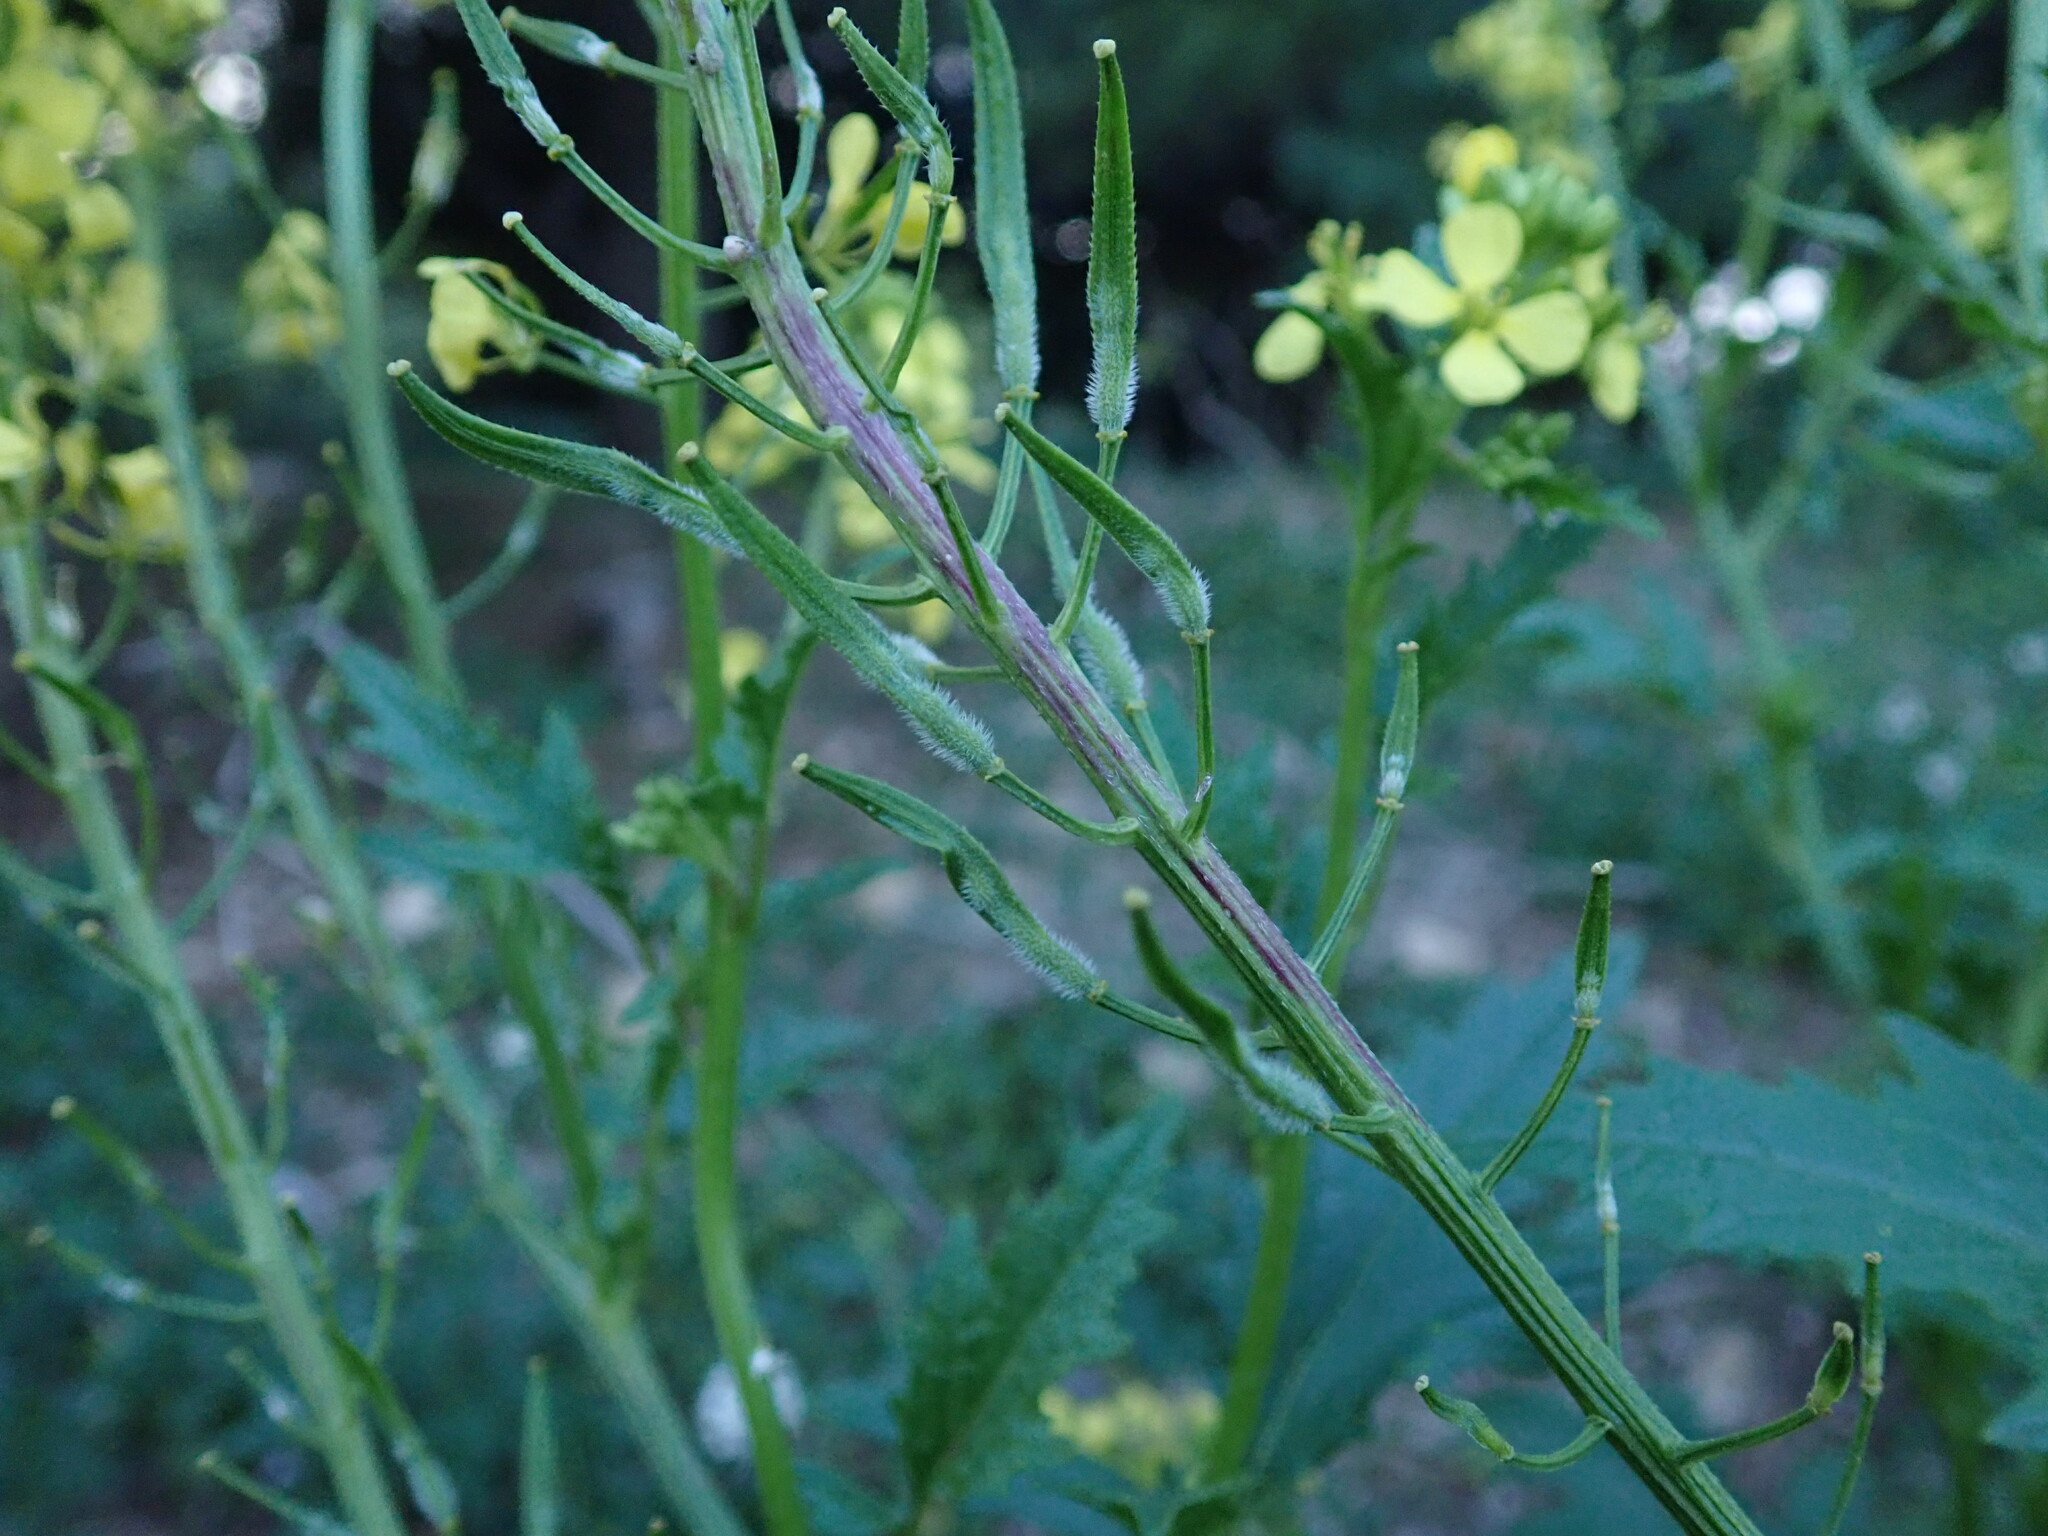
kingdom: Plantae
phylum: Tracheophyta
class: Magnoliopsida
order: Brassicales
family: Brassicaceae
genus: Sinapis
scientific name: Sinapis alba
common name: White mustard
